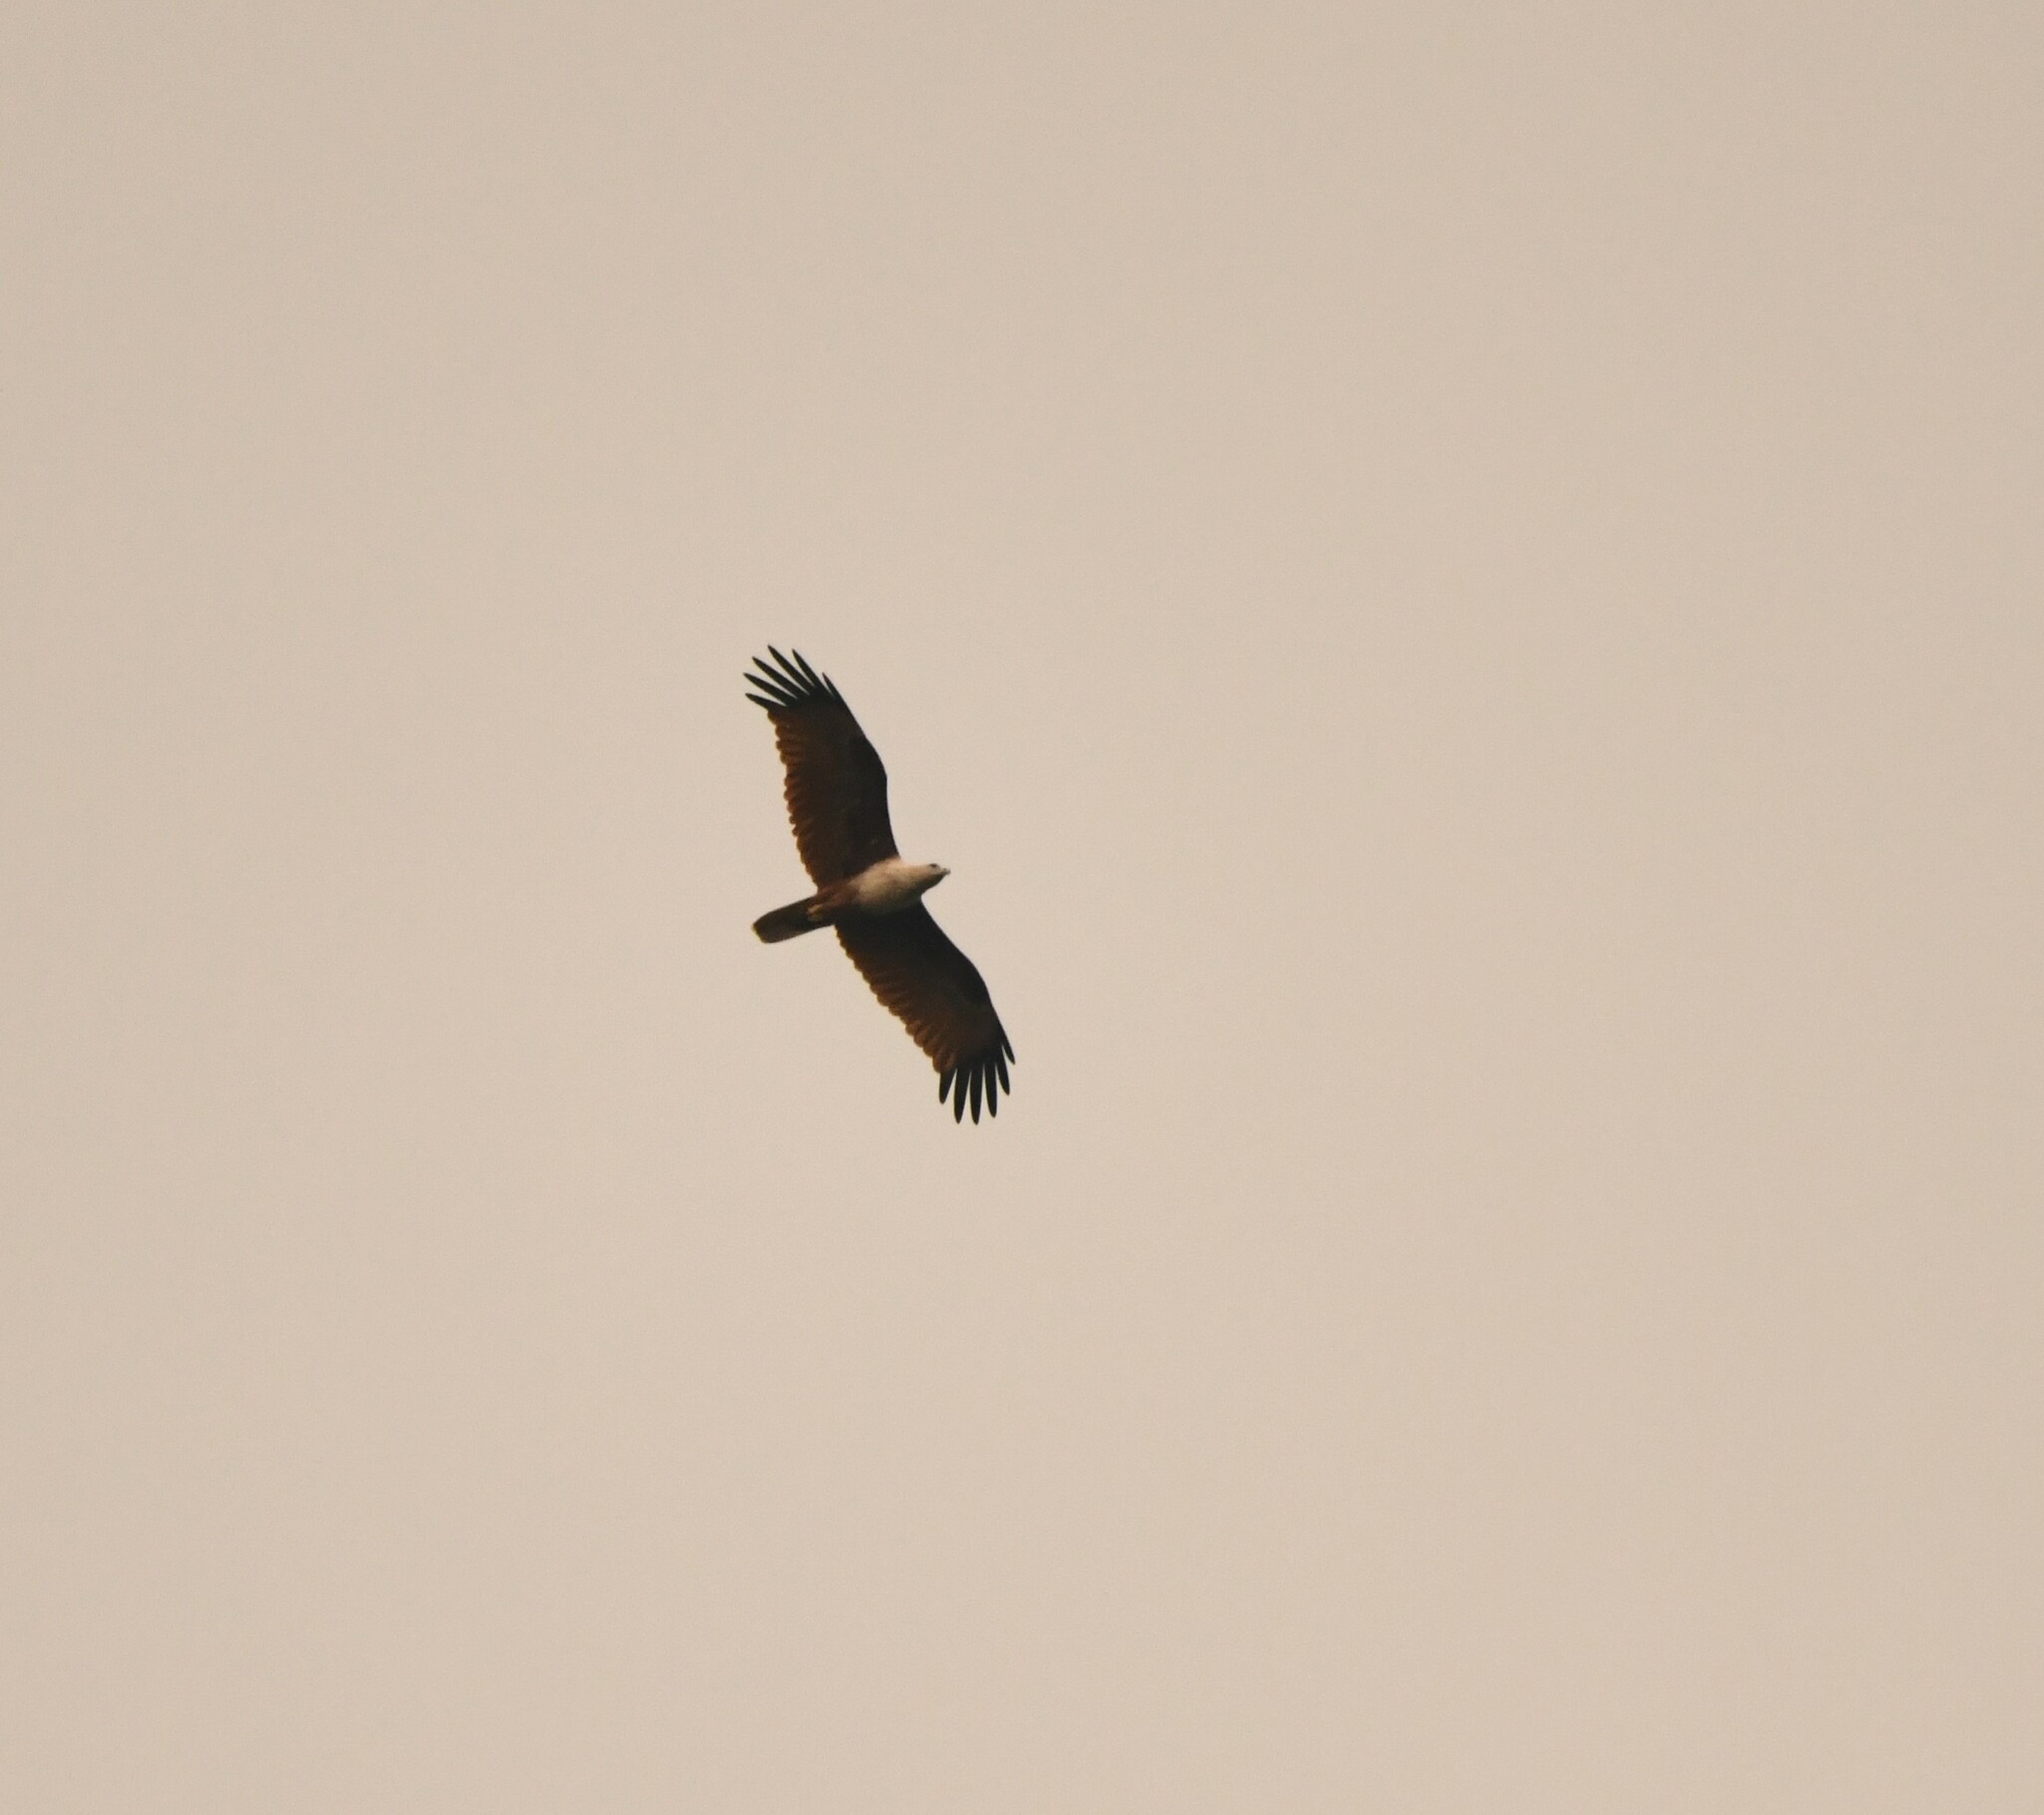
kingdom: Animalia
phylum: Chordata
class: Aves
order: Accipitriformes
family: Accipitridae
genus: Haliastur
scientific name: Haliastur indus
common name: Brahminy kite
